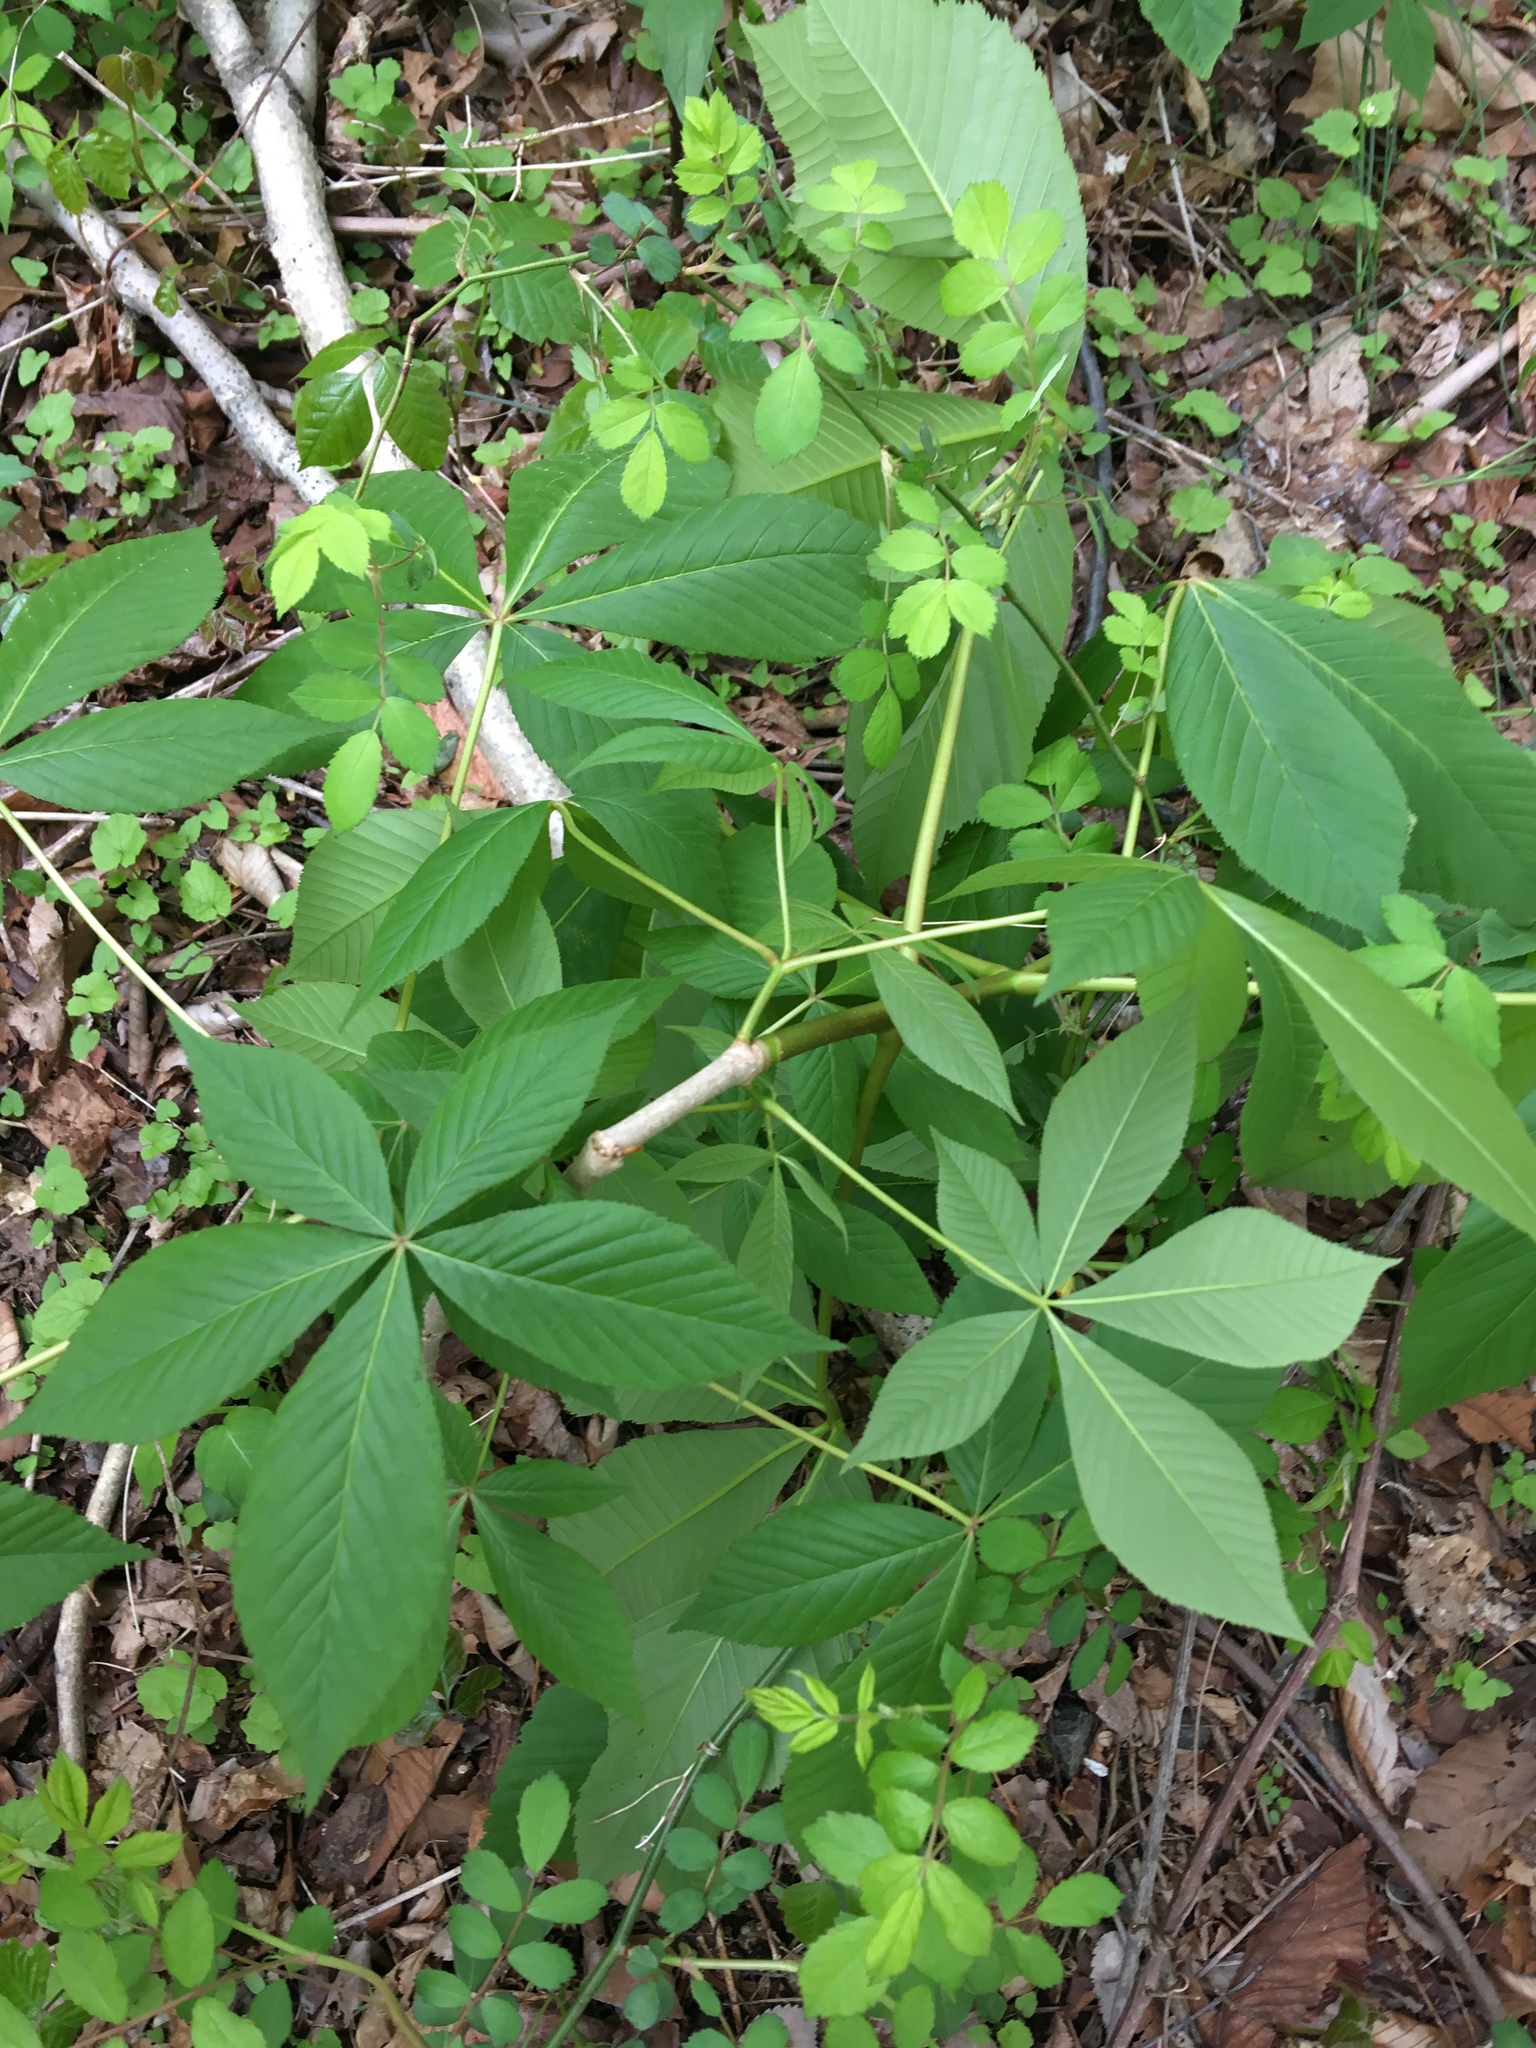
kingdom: Plantae
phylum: Tracheophyta
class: Magnoliopsida
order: Sapindales
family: Sapindaceae
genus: Aesculus
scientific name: Aesculus glabra
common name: Ohio buckeye
